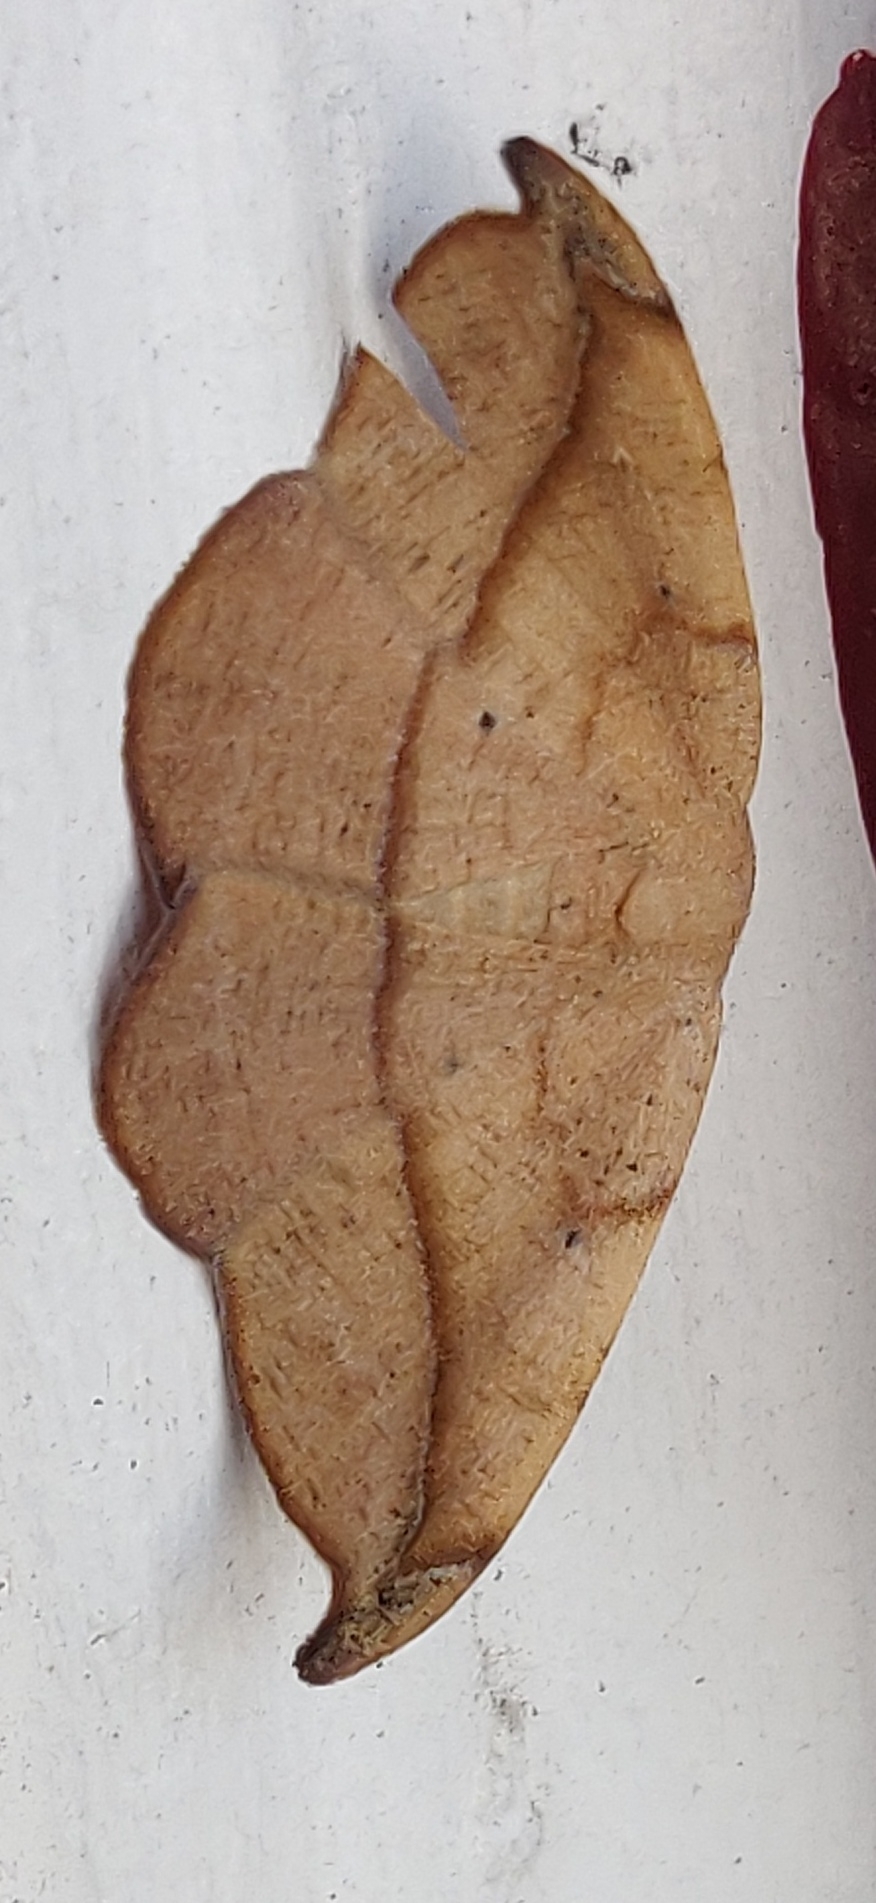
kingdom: Animalia
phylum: Arthropoda
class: Insecta
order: Lepidoptera
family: Geometridae
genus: Patalene
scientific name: Patalene olyzonaria
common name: Juniper geometer moth
